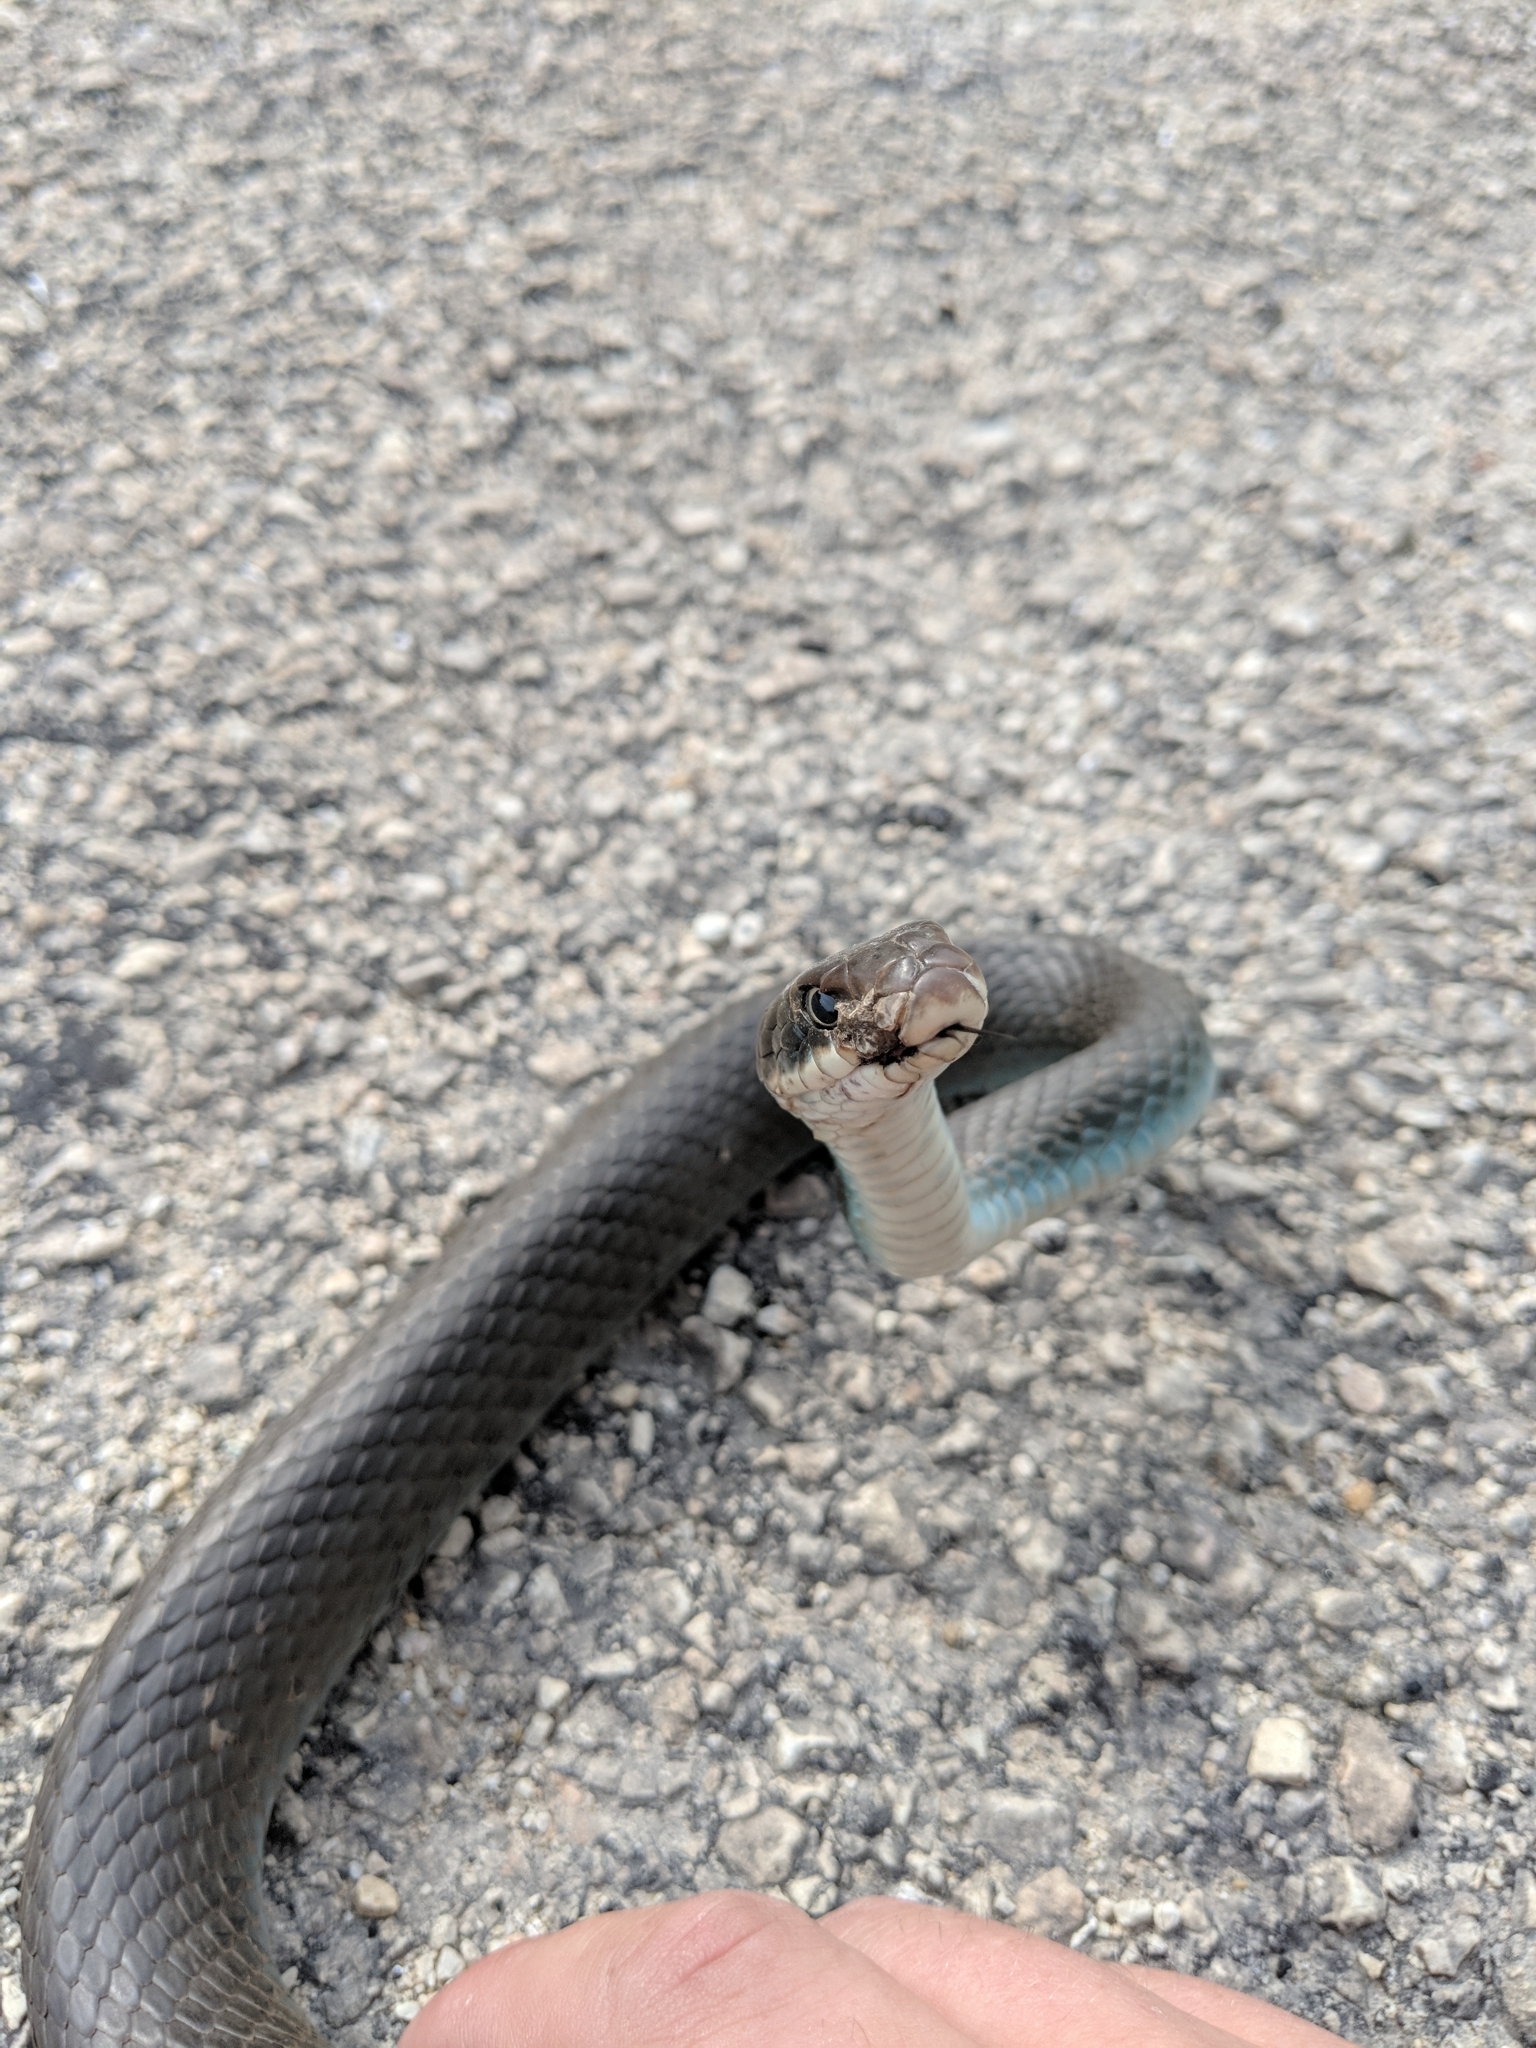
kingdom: Animalia
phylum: Chordata
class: Squamata
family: Colubridae
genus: Coluber
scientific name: Coluber constrictor
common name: Eastern racer
